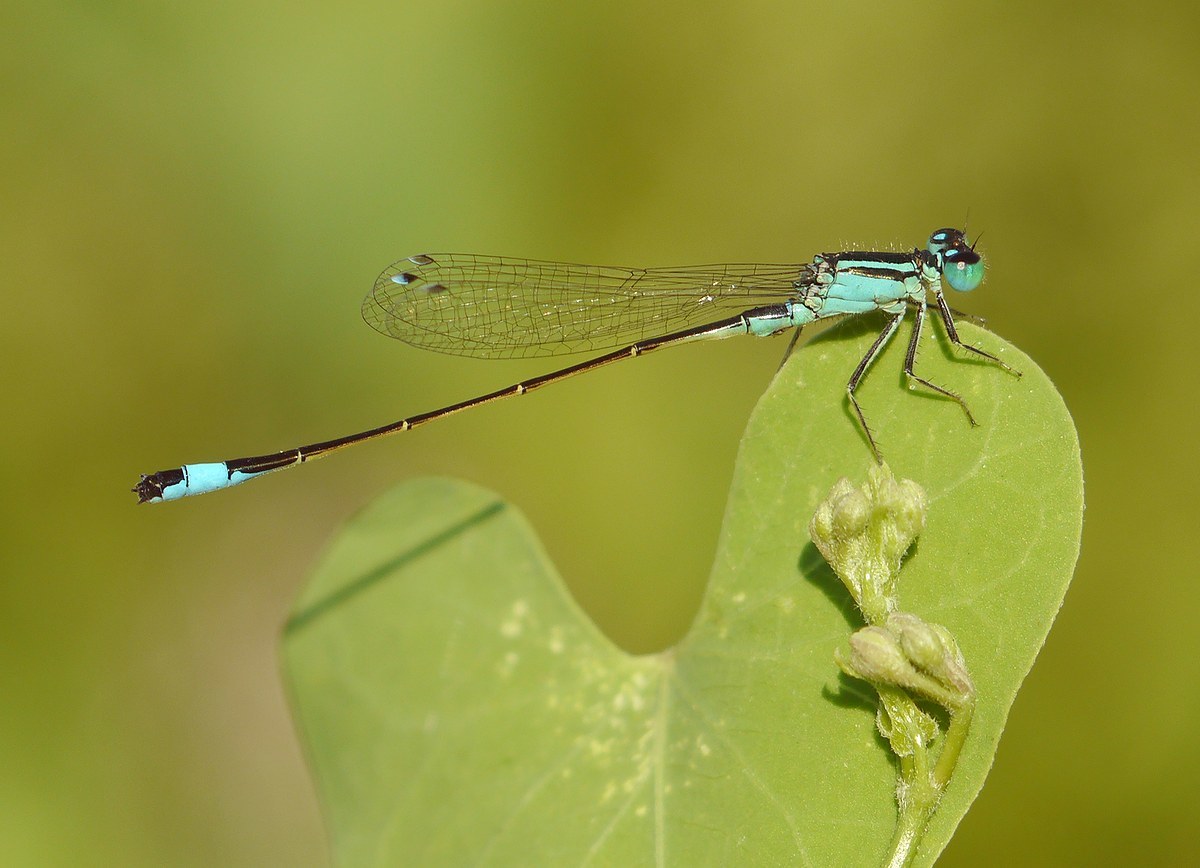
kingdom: Animalia
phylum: Arthropoda
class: Insecta
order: Odonata
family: Coenagrionidae
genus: Ischnura
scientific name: Ischnura elegans
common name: Blue-tailed damselfly
